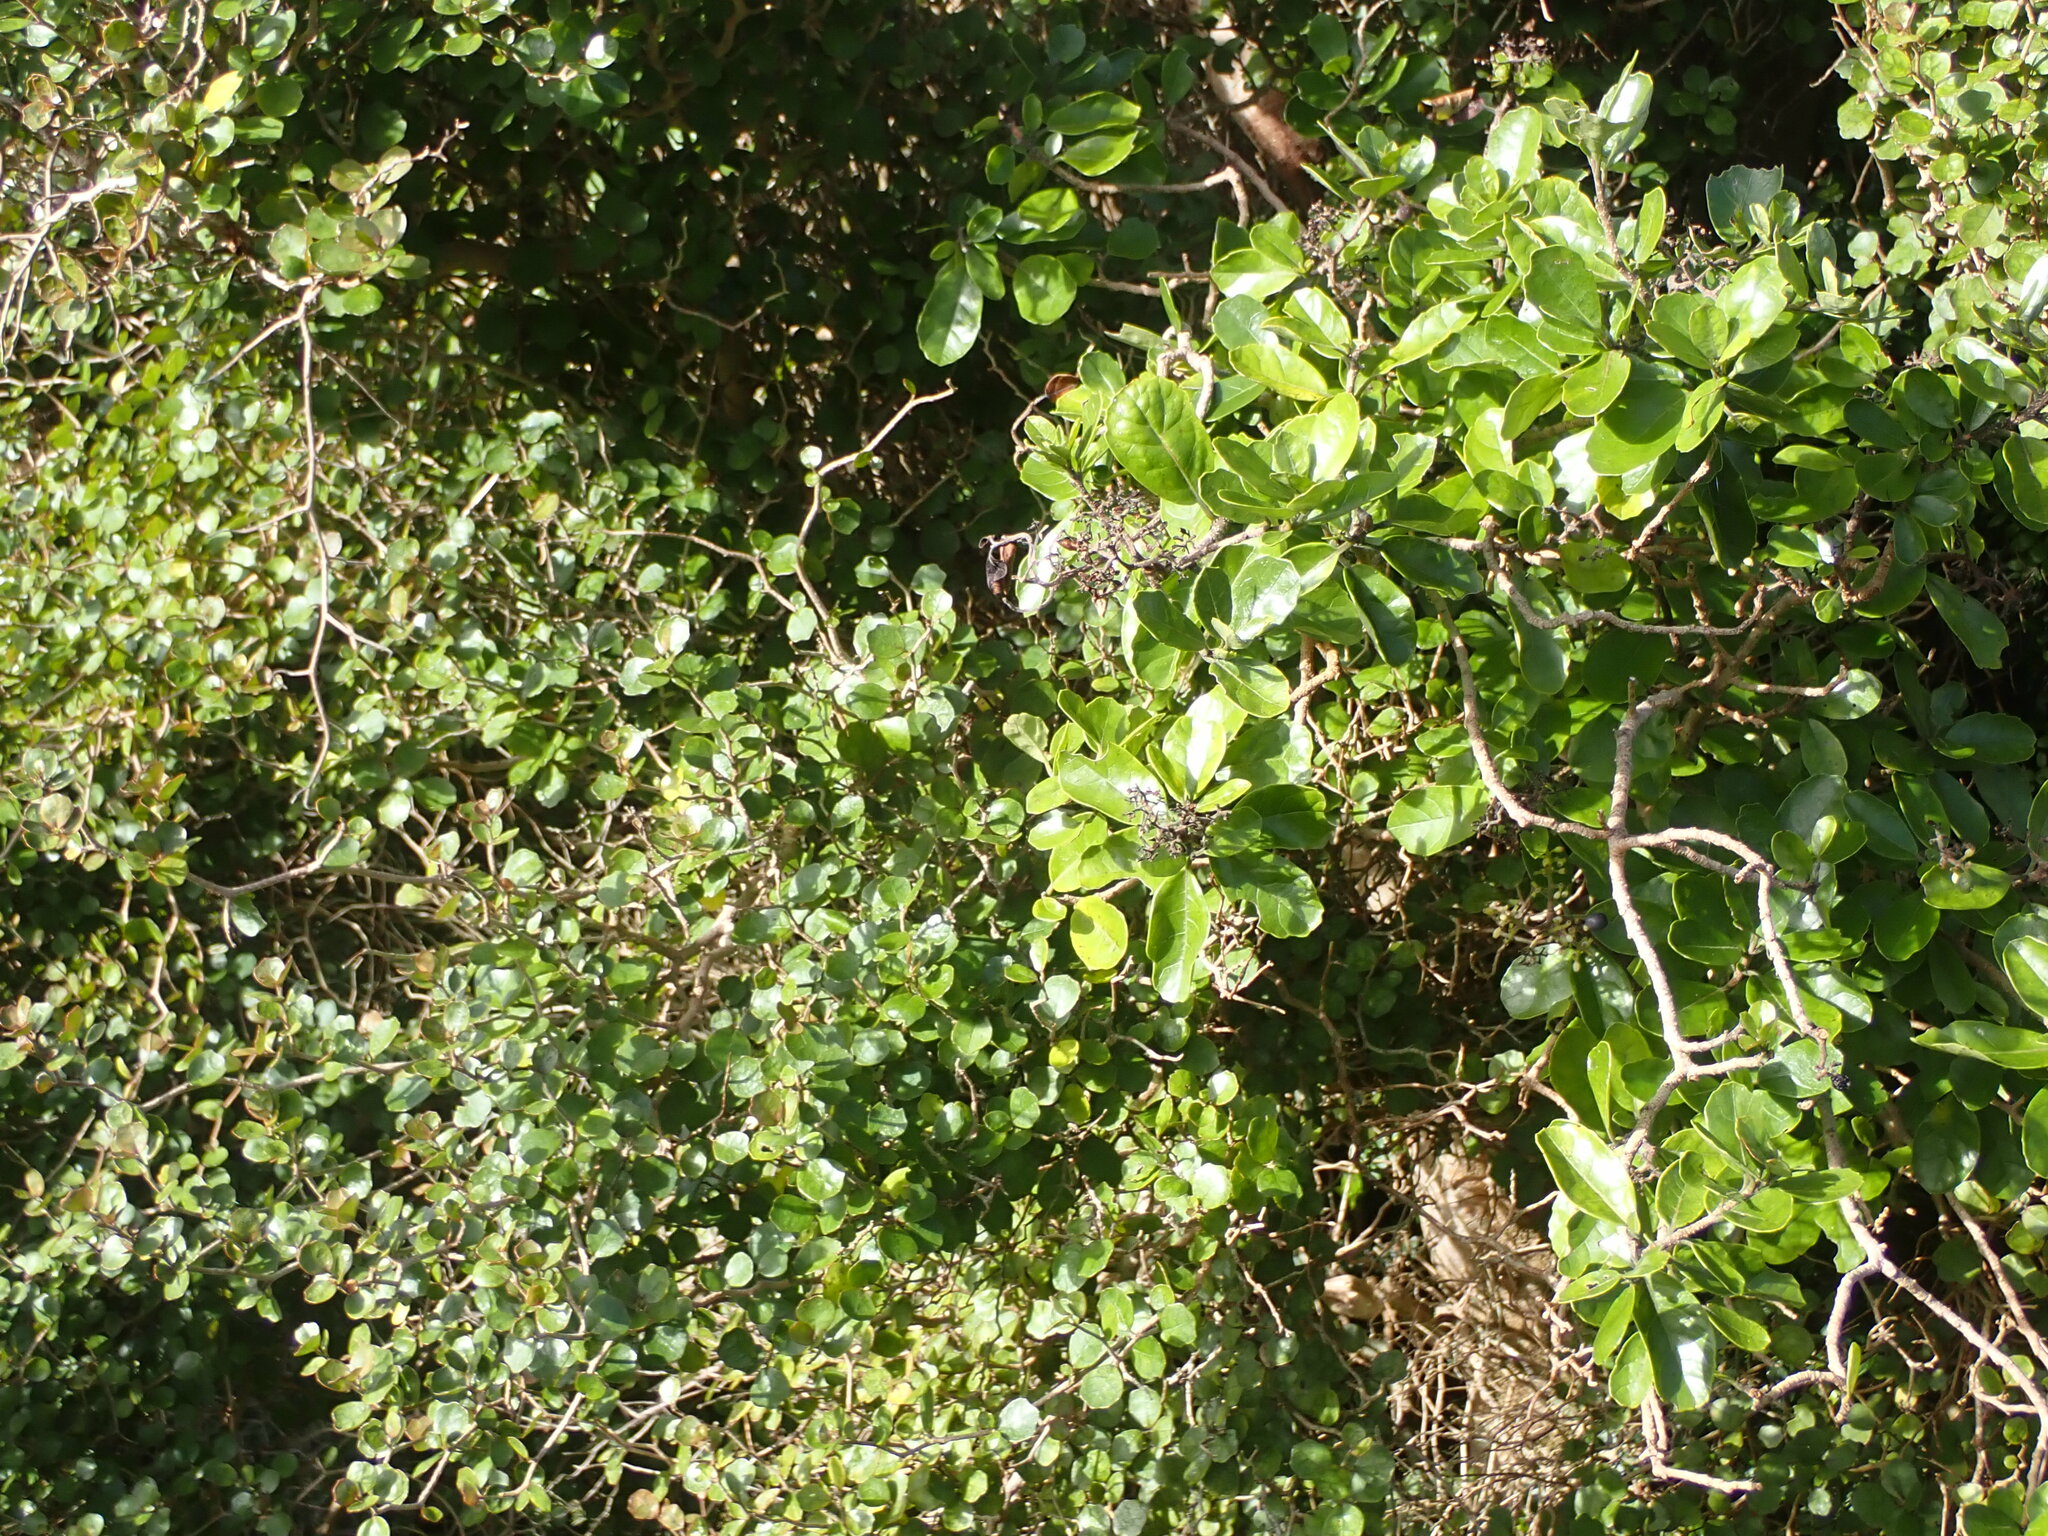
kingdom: Plantae
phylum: Tracheophyta
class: Magnoliopsida
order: Apiales
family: Pennantiaceae
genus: Pennantia
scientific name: Pennantia corymbosa
